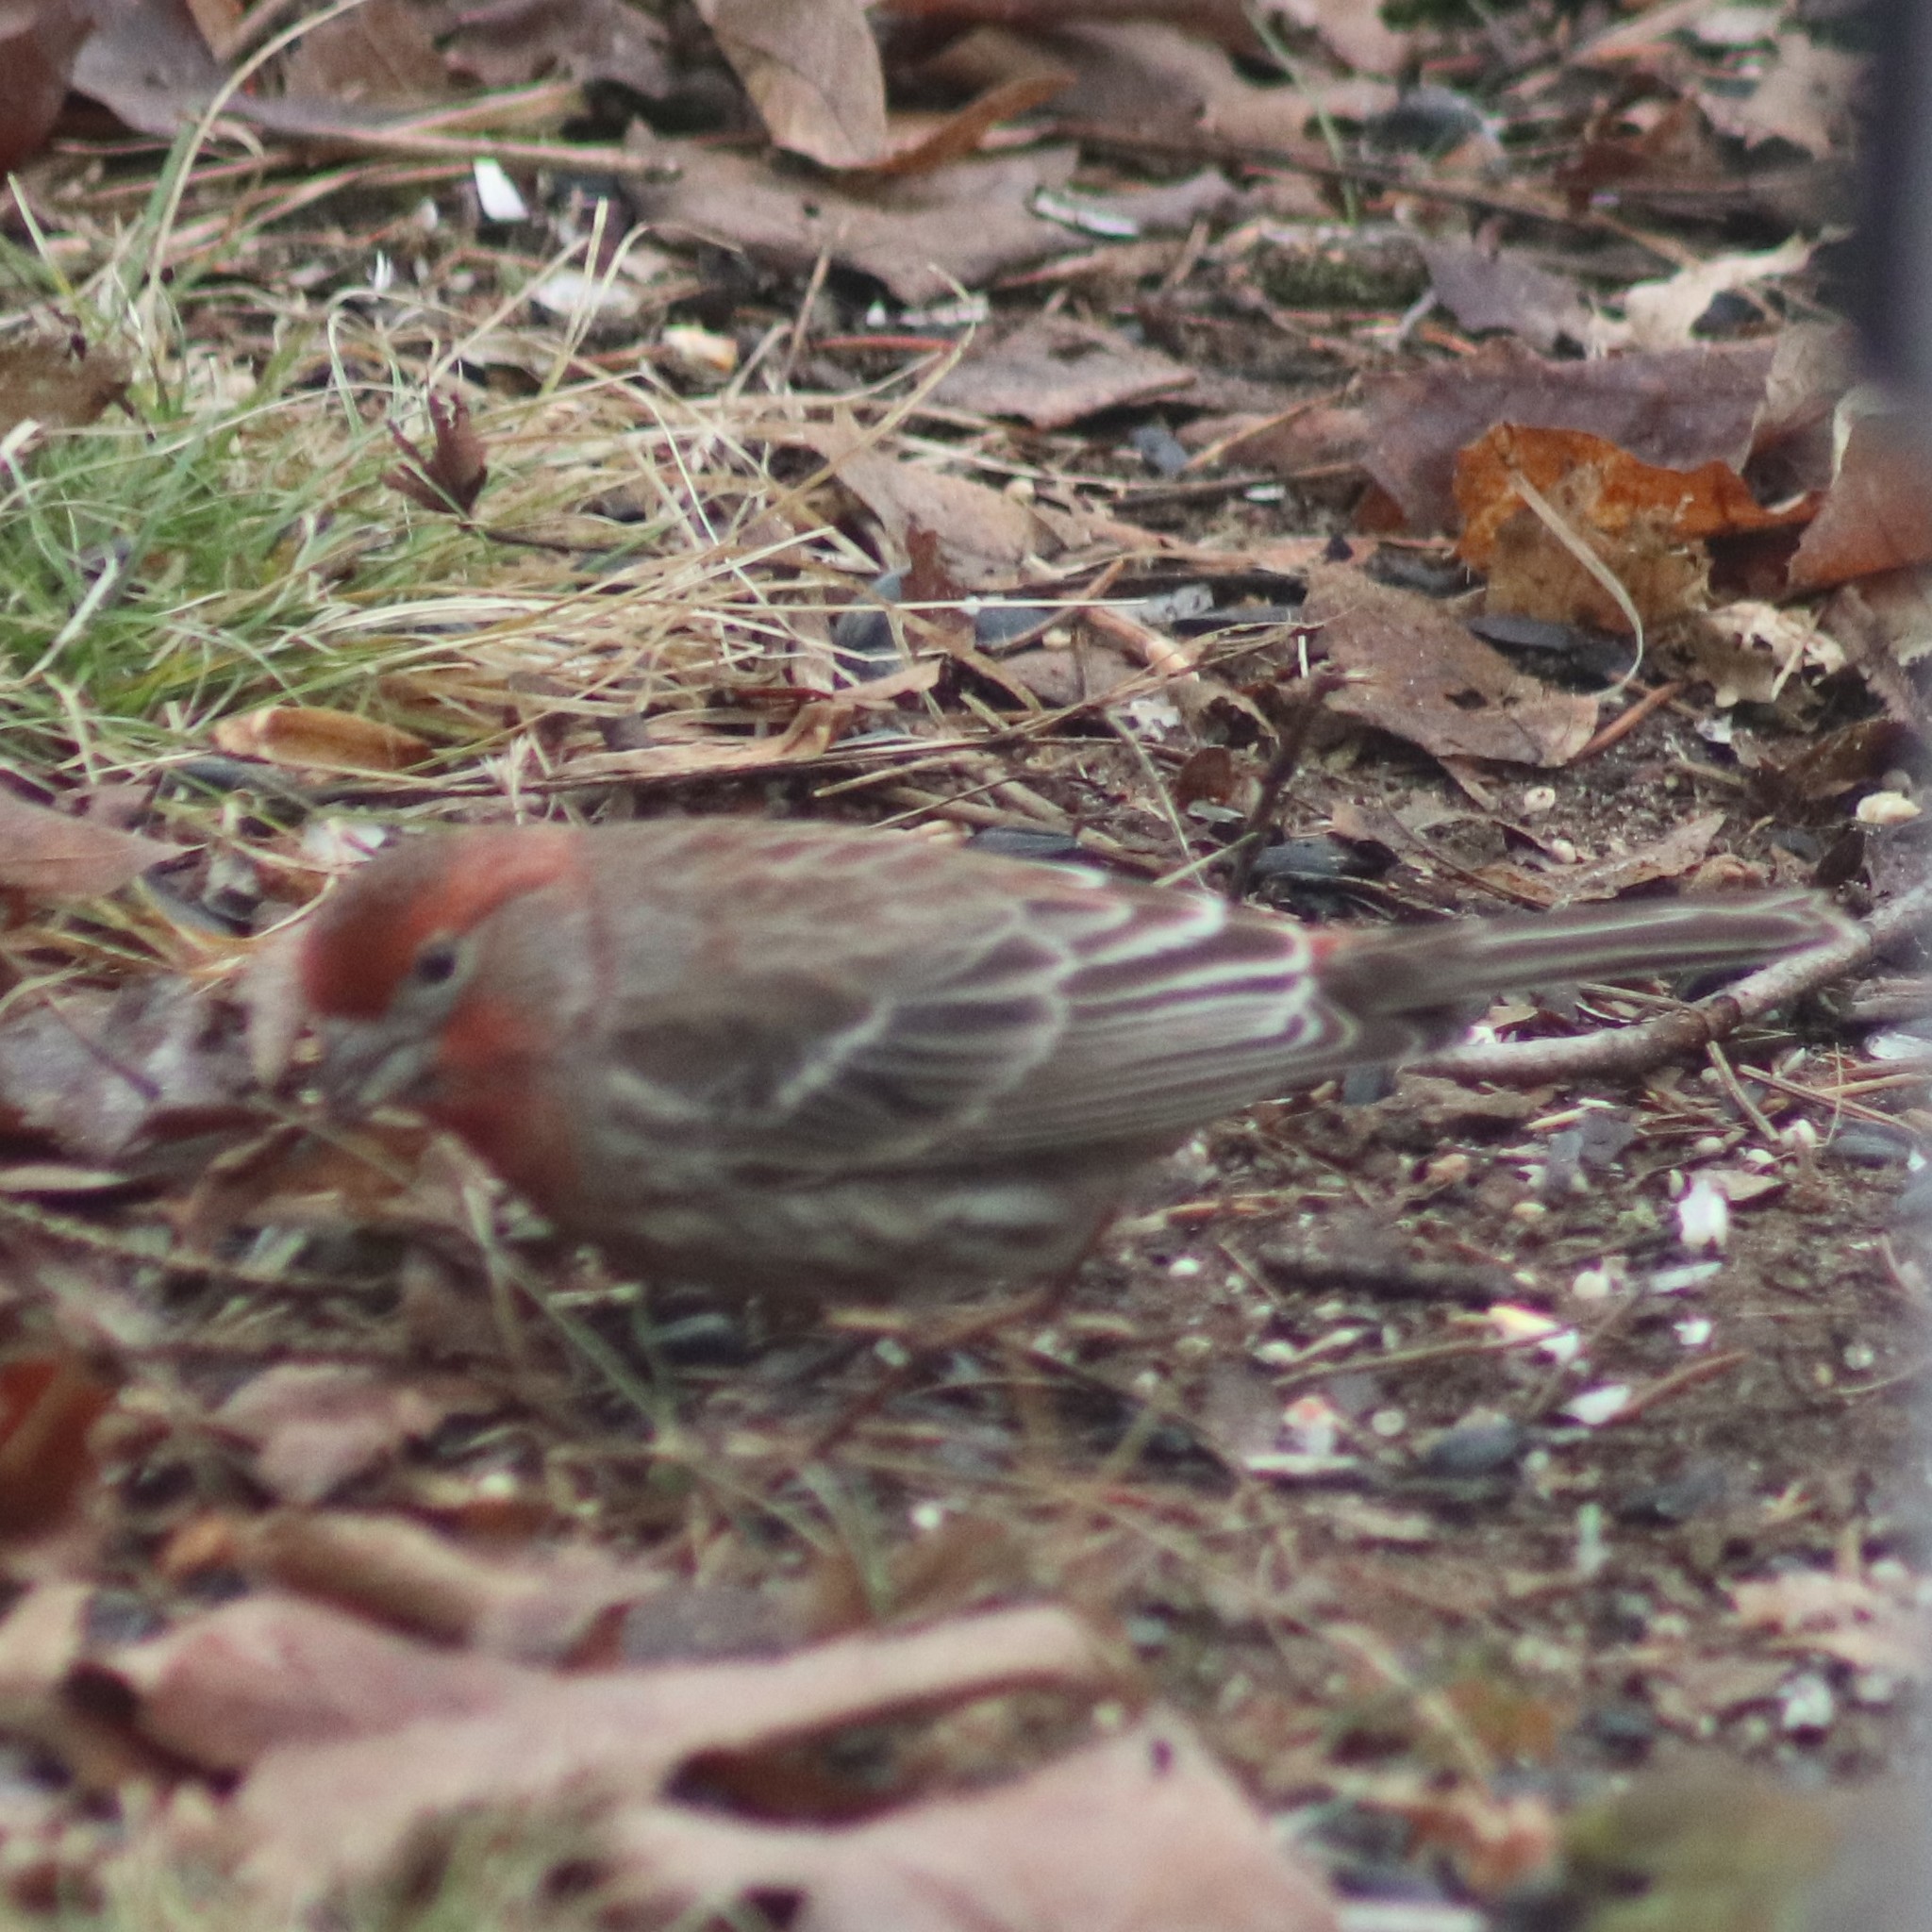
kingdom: Animalia
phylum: Chordata
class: Aves
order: Passeriformes
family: Fringillidae
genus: Haemorhous
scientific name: Haemorhous mexicanus
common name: House finch
